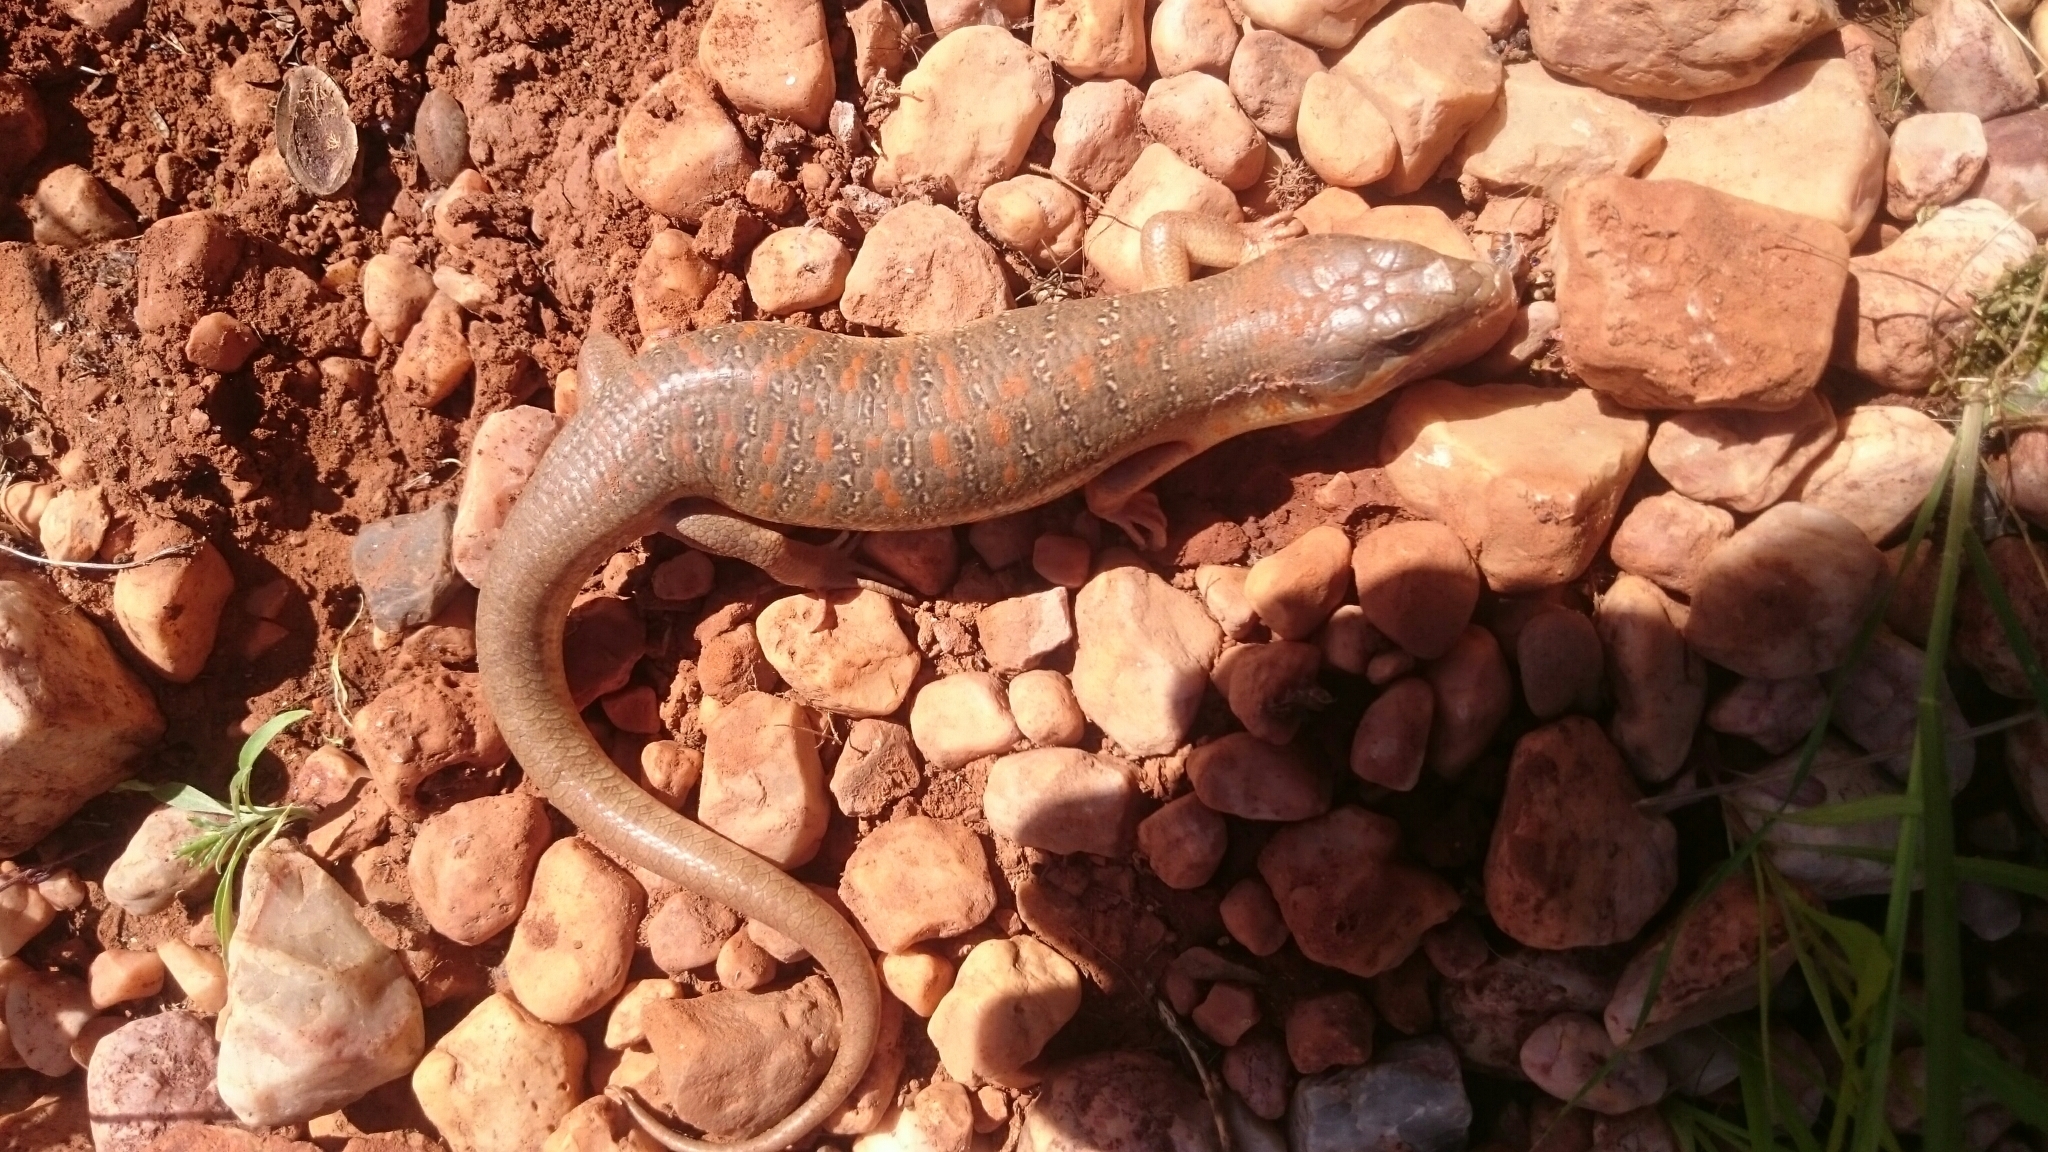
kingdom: Animalia
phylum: Chordata
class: Squamata
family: Scincidae
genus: Eumeces
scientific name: Eumeces algeriensis
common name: Algerian orange-tailed skink
